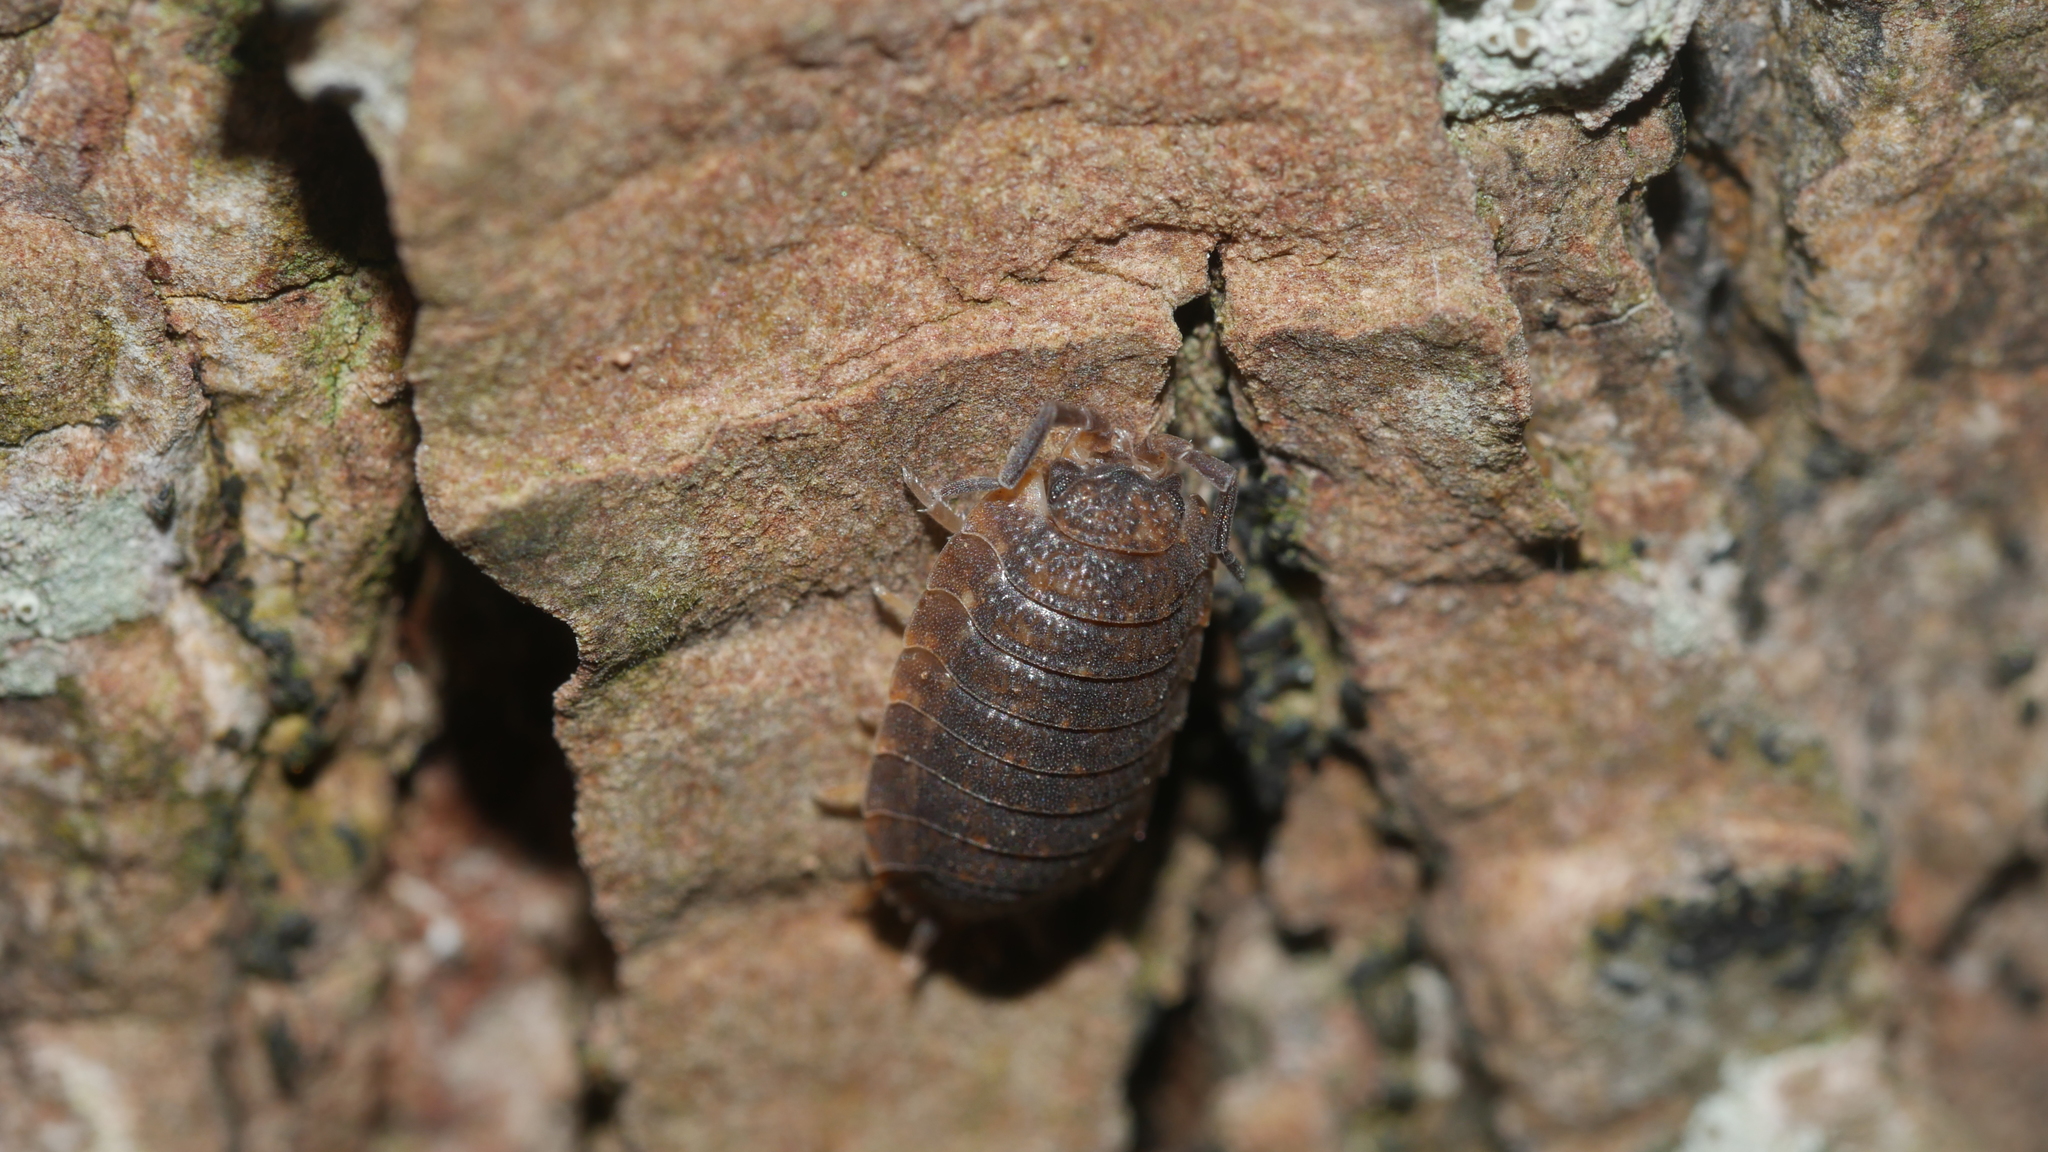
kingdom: Animalia
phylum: Arthropoda
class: Malacostraca
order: Isopoda
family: Porcellionidae
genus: Porcellio
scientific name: Porcellio scaber
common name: Common rough woodlouse
